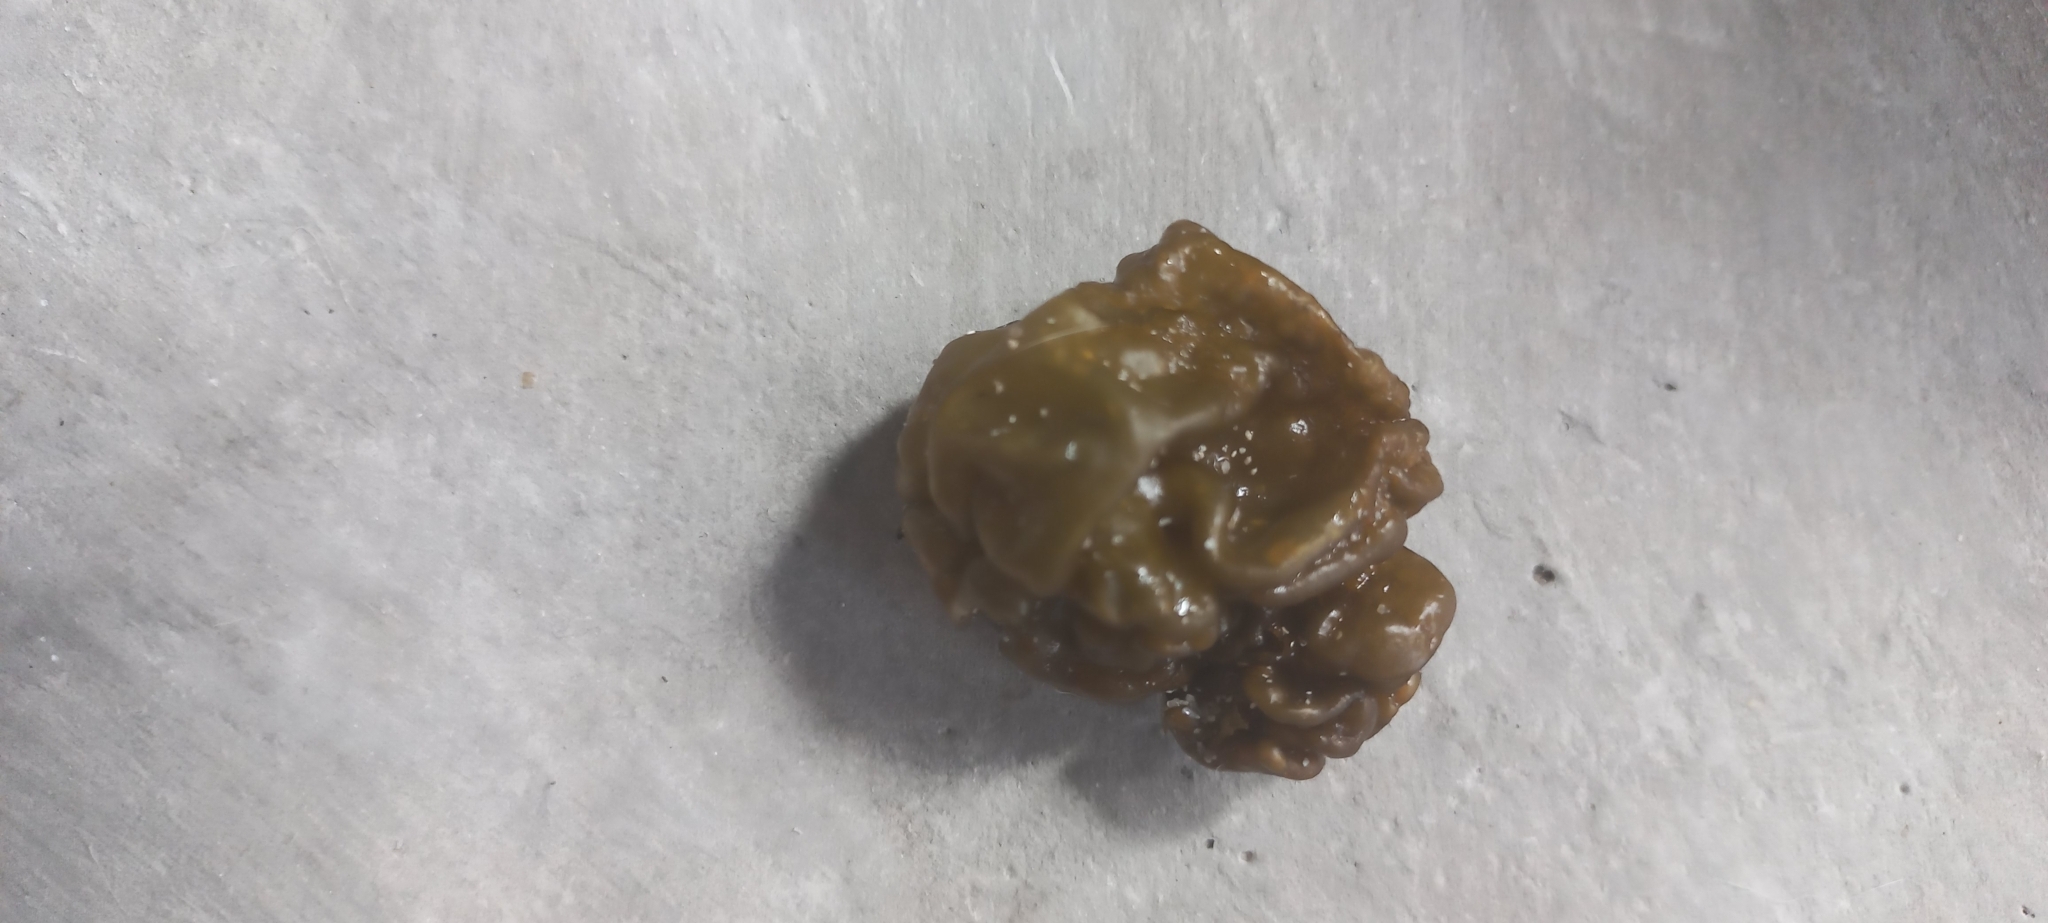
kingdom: Chromista
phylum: Ochrophyta
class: Phaeophyceae
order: Scytosiphonales
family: Scytosiphonaceae
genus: Colpomenia
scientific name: Colpomenia sinuosa
